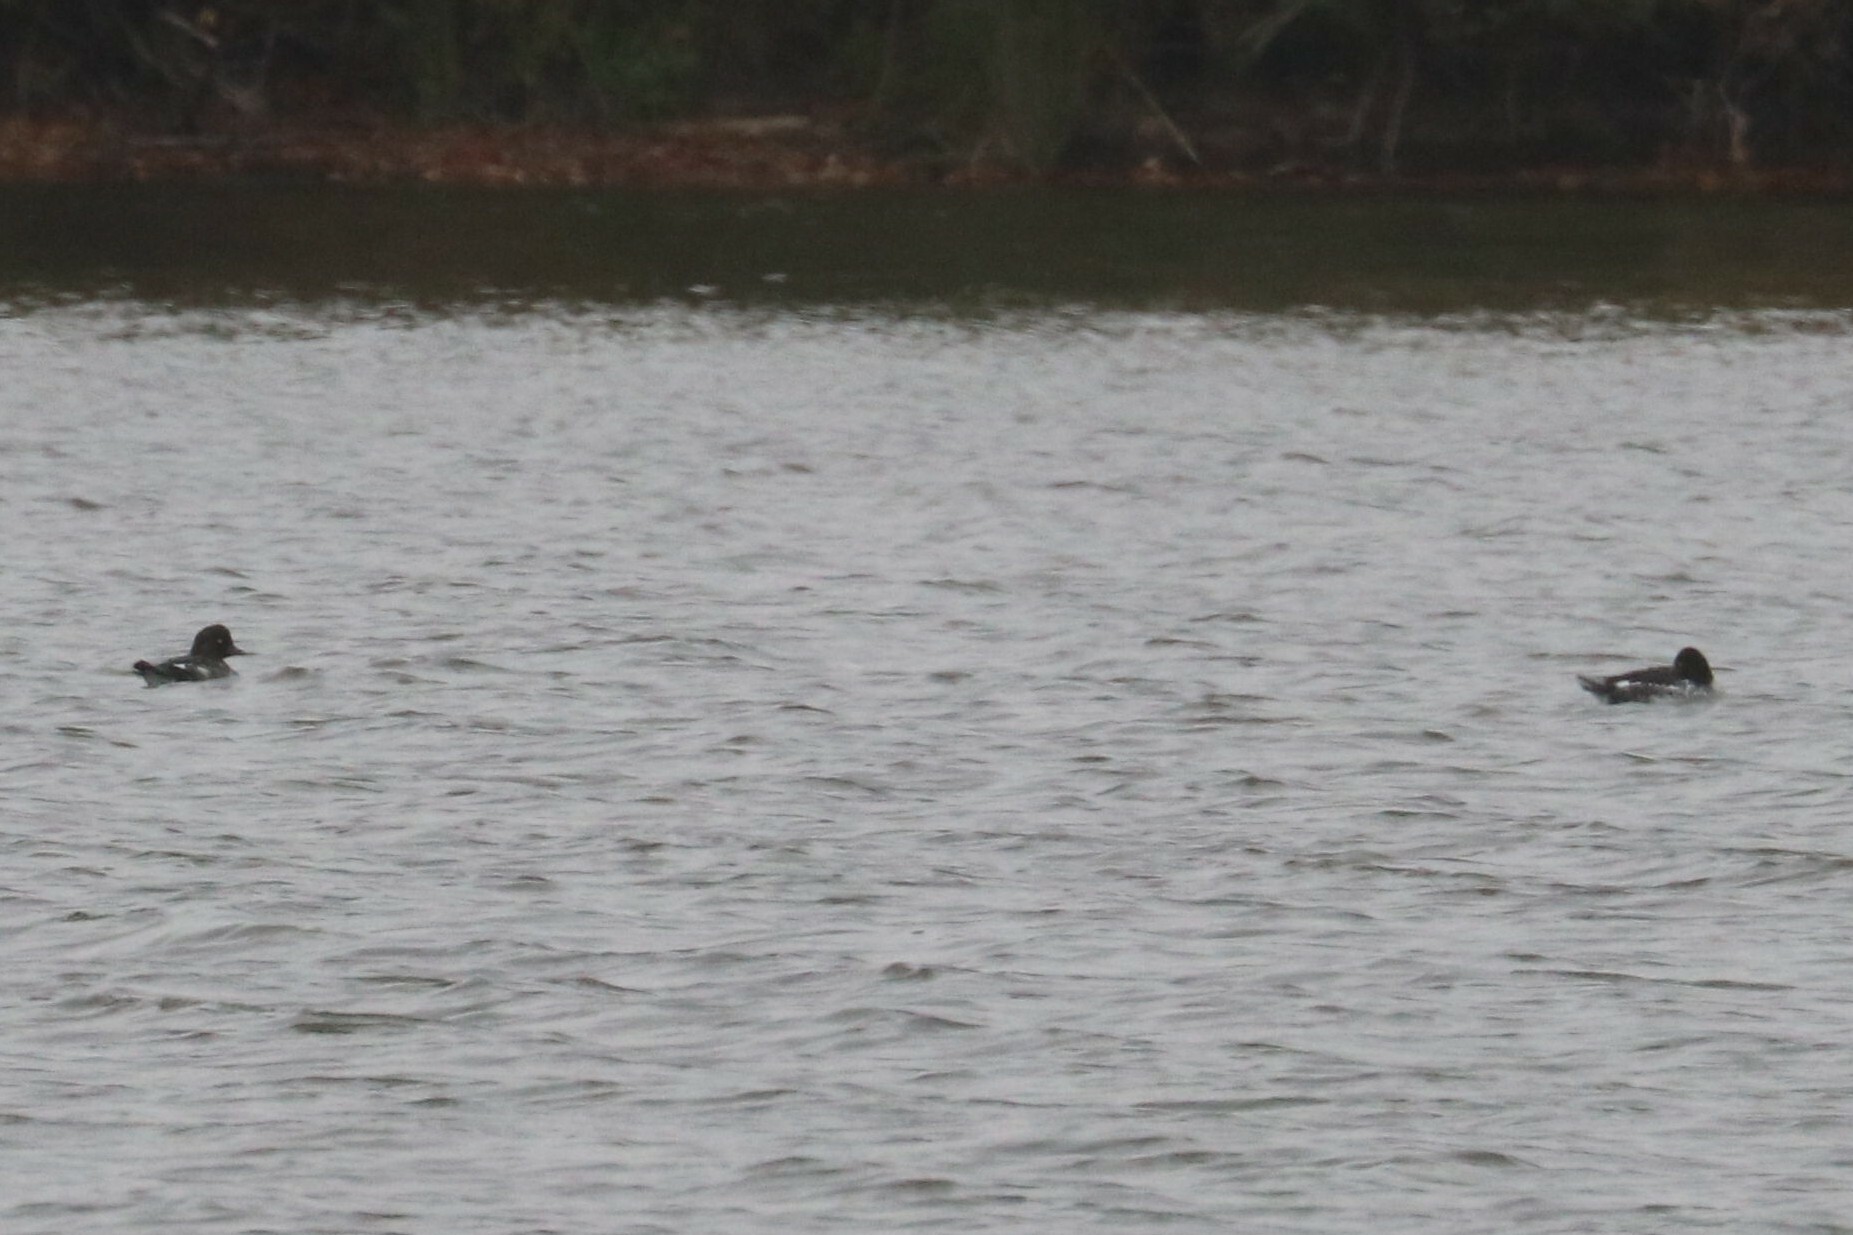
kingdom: Animalia
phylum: Chordata
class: Aves
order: Anseriformes
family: Anatidae
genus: Bucephala
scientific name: Bucephala clangula
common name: Common goldeneye
